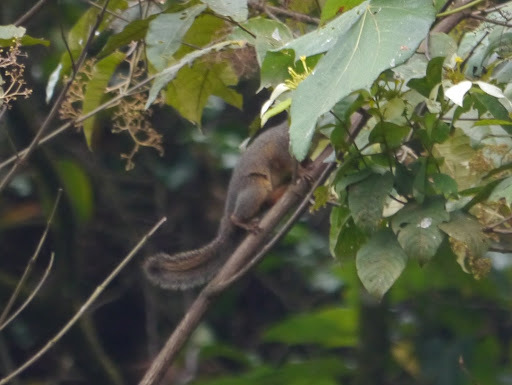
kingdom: Animalia
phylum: Chordata
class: Mammalia
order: Rodentia
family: Sciuridae
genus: Heliosciurus
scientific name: Heliosciurus rufobrachium
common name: Red-legged sun squirrel
